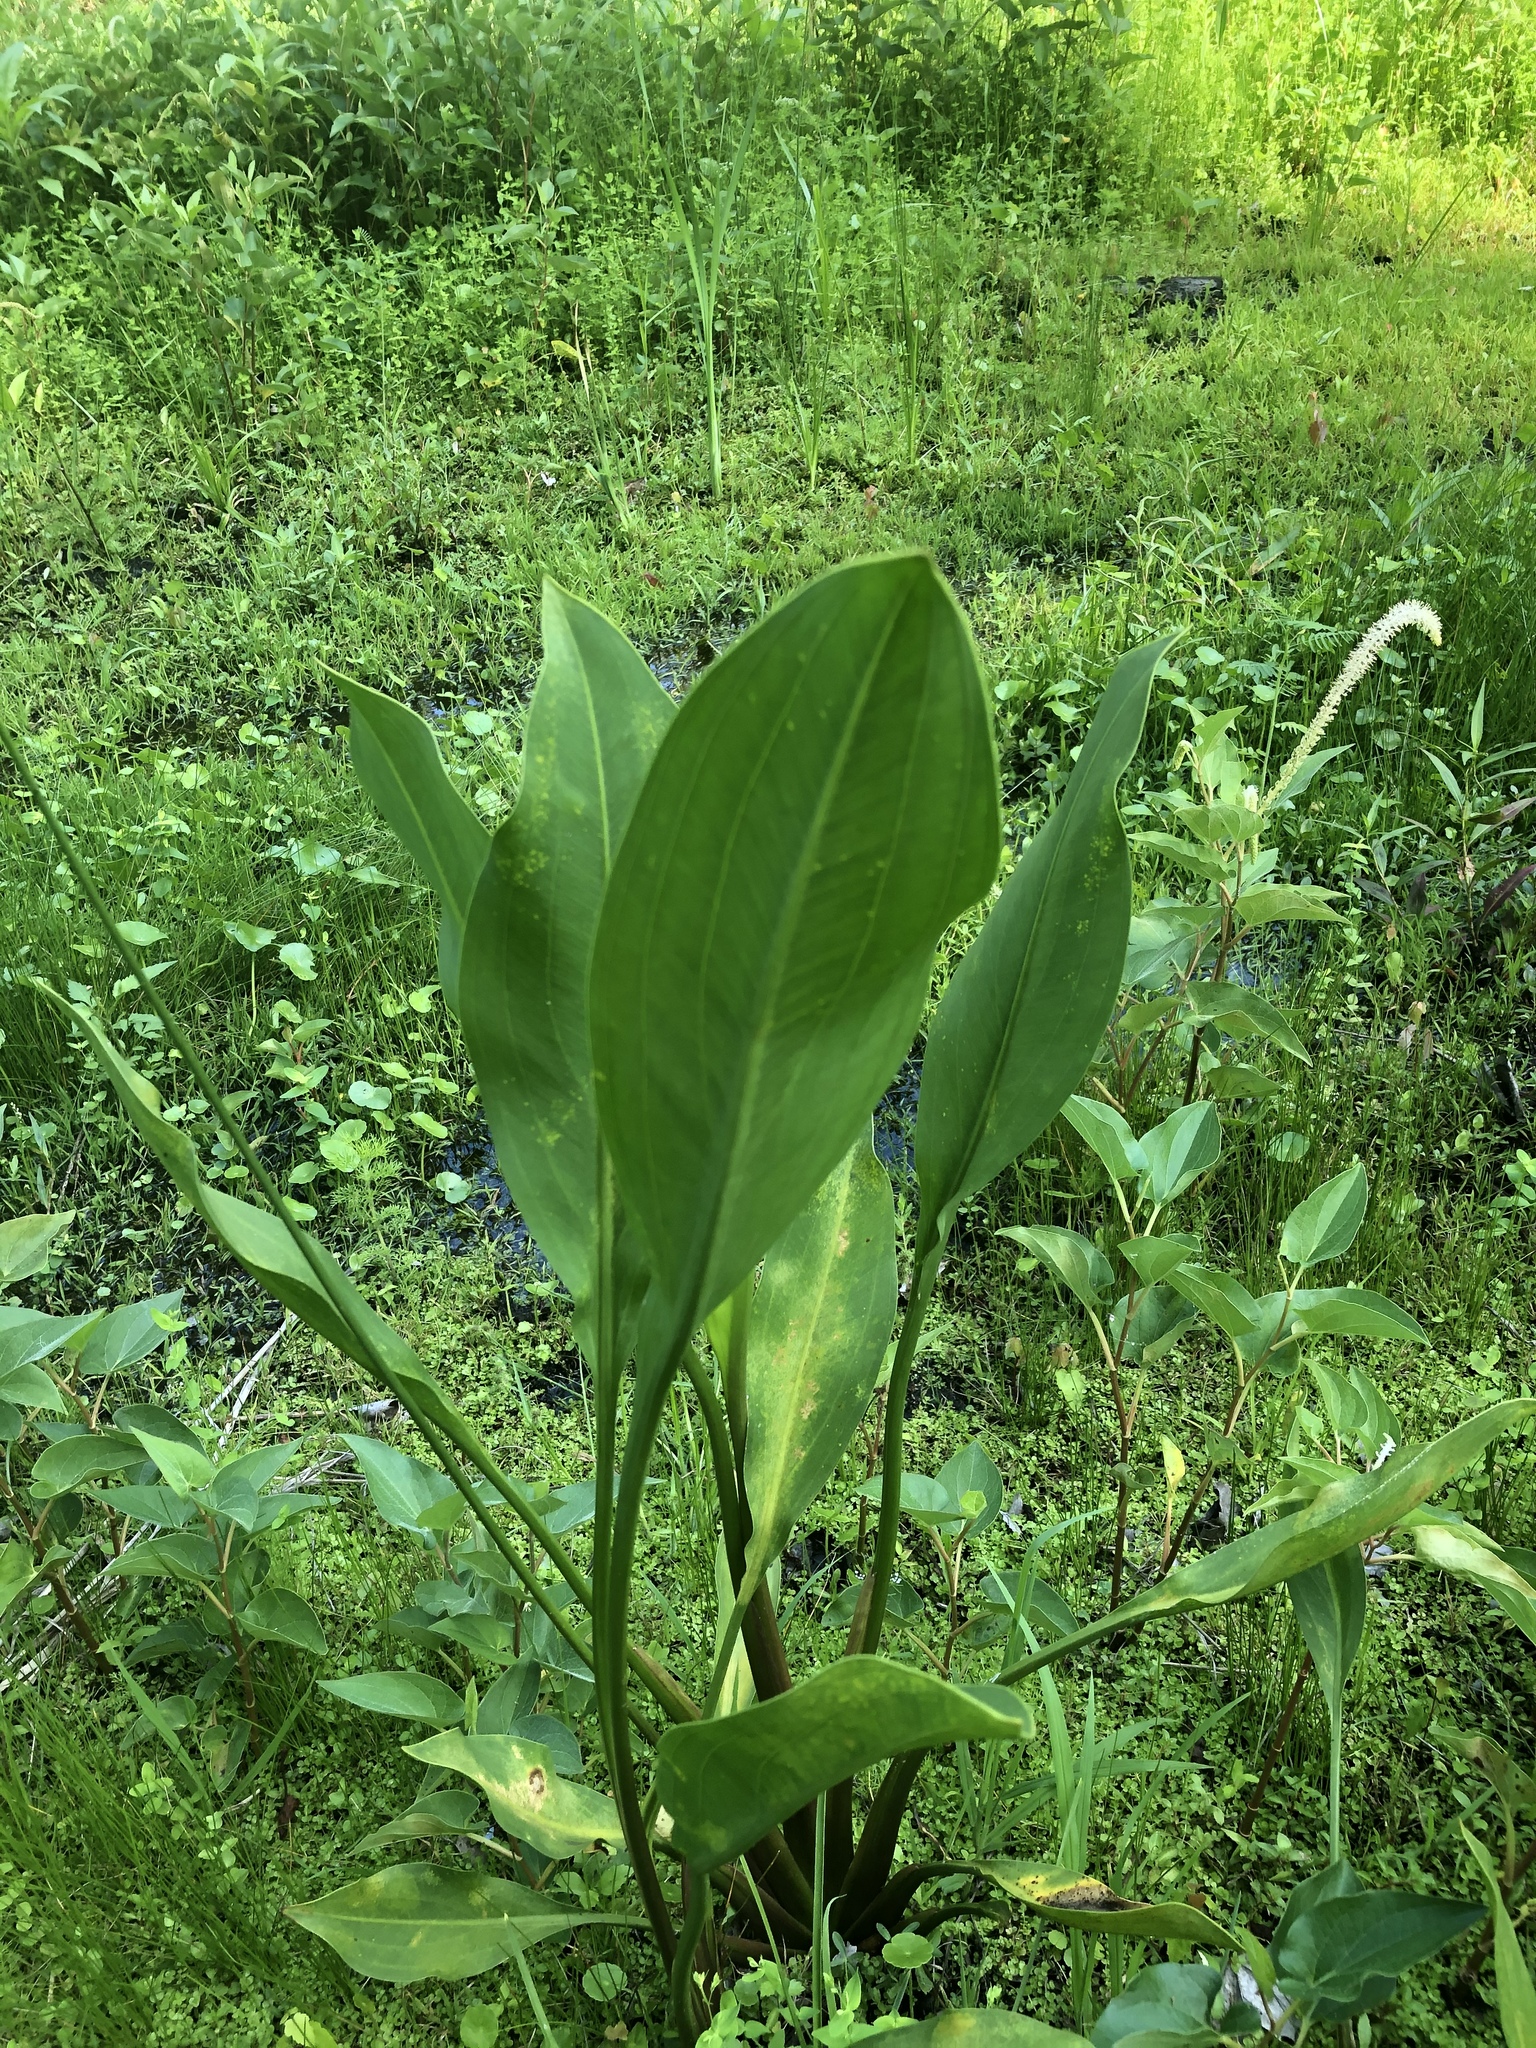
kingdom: Plantae
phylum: Tracheophyta
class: Liliopsida
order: Alismatales
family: Alismataceae
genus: Sagittaria
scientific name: Sagittaria lancifolia
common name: Lance-leaf arrowhead
